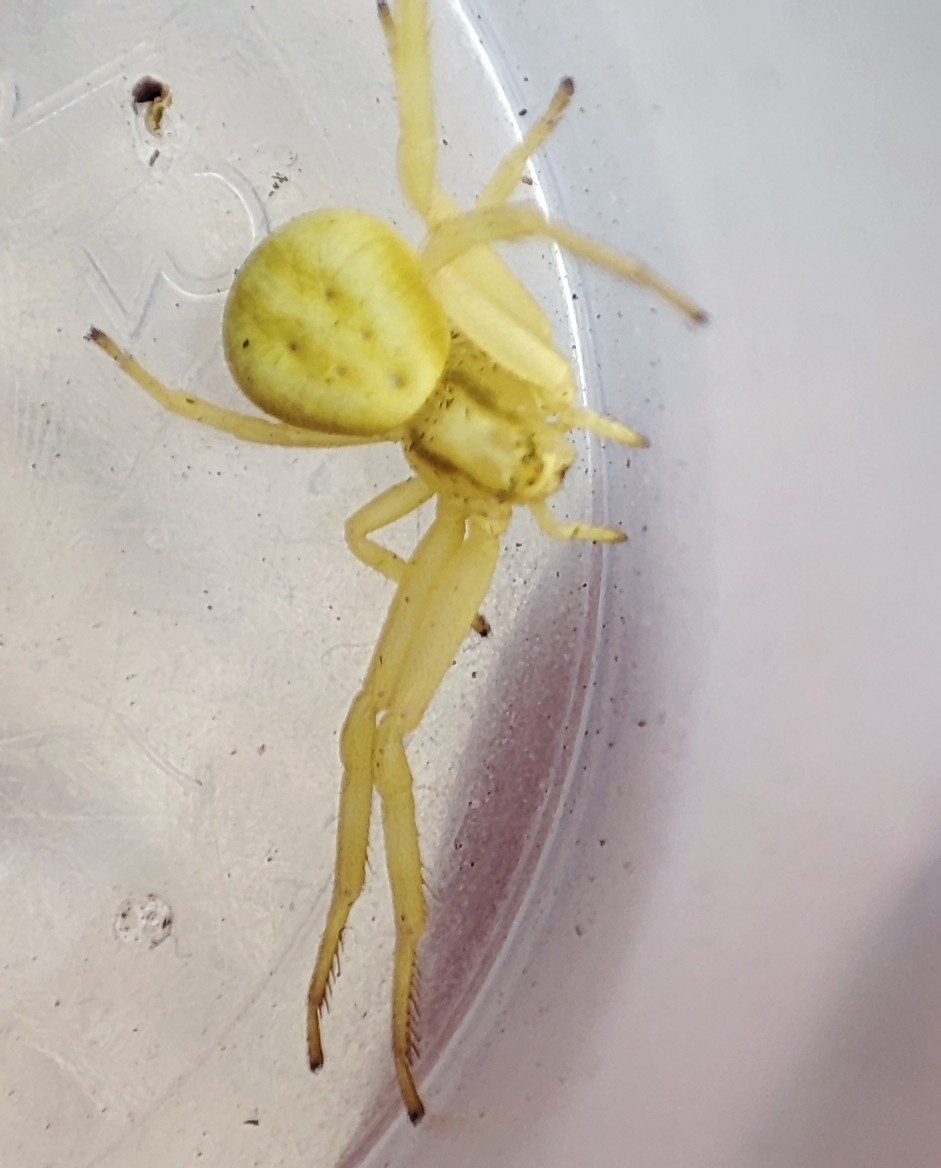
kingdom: Animalia
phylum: Arthropoda
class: Arachnida
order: Araneae
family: Thomisidae
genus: Misumena
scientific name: Misumena vatia
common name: Goldenrod crab spider
